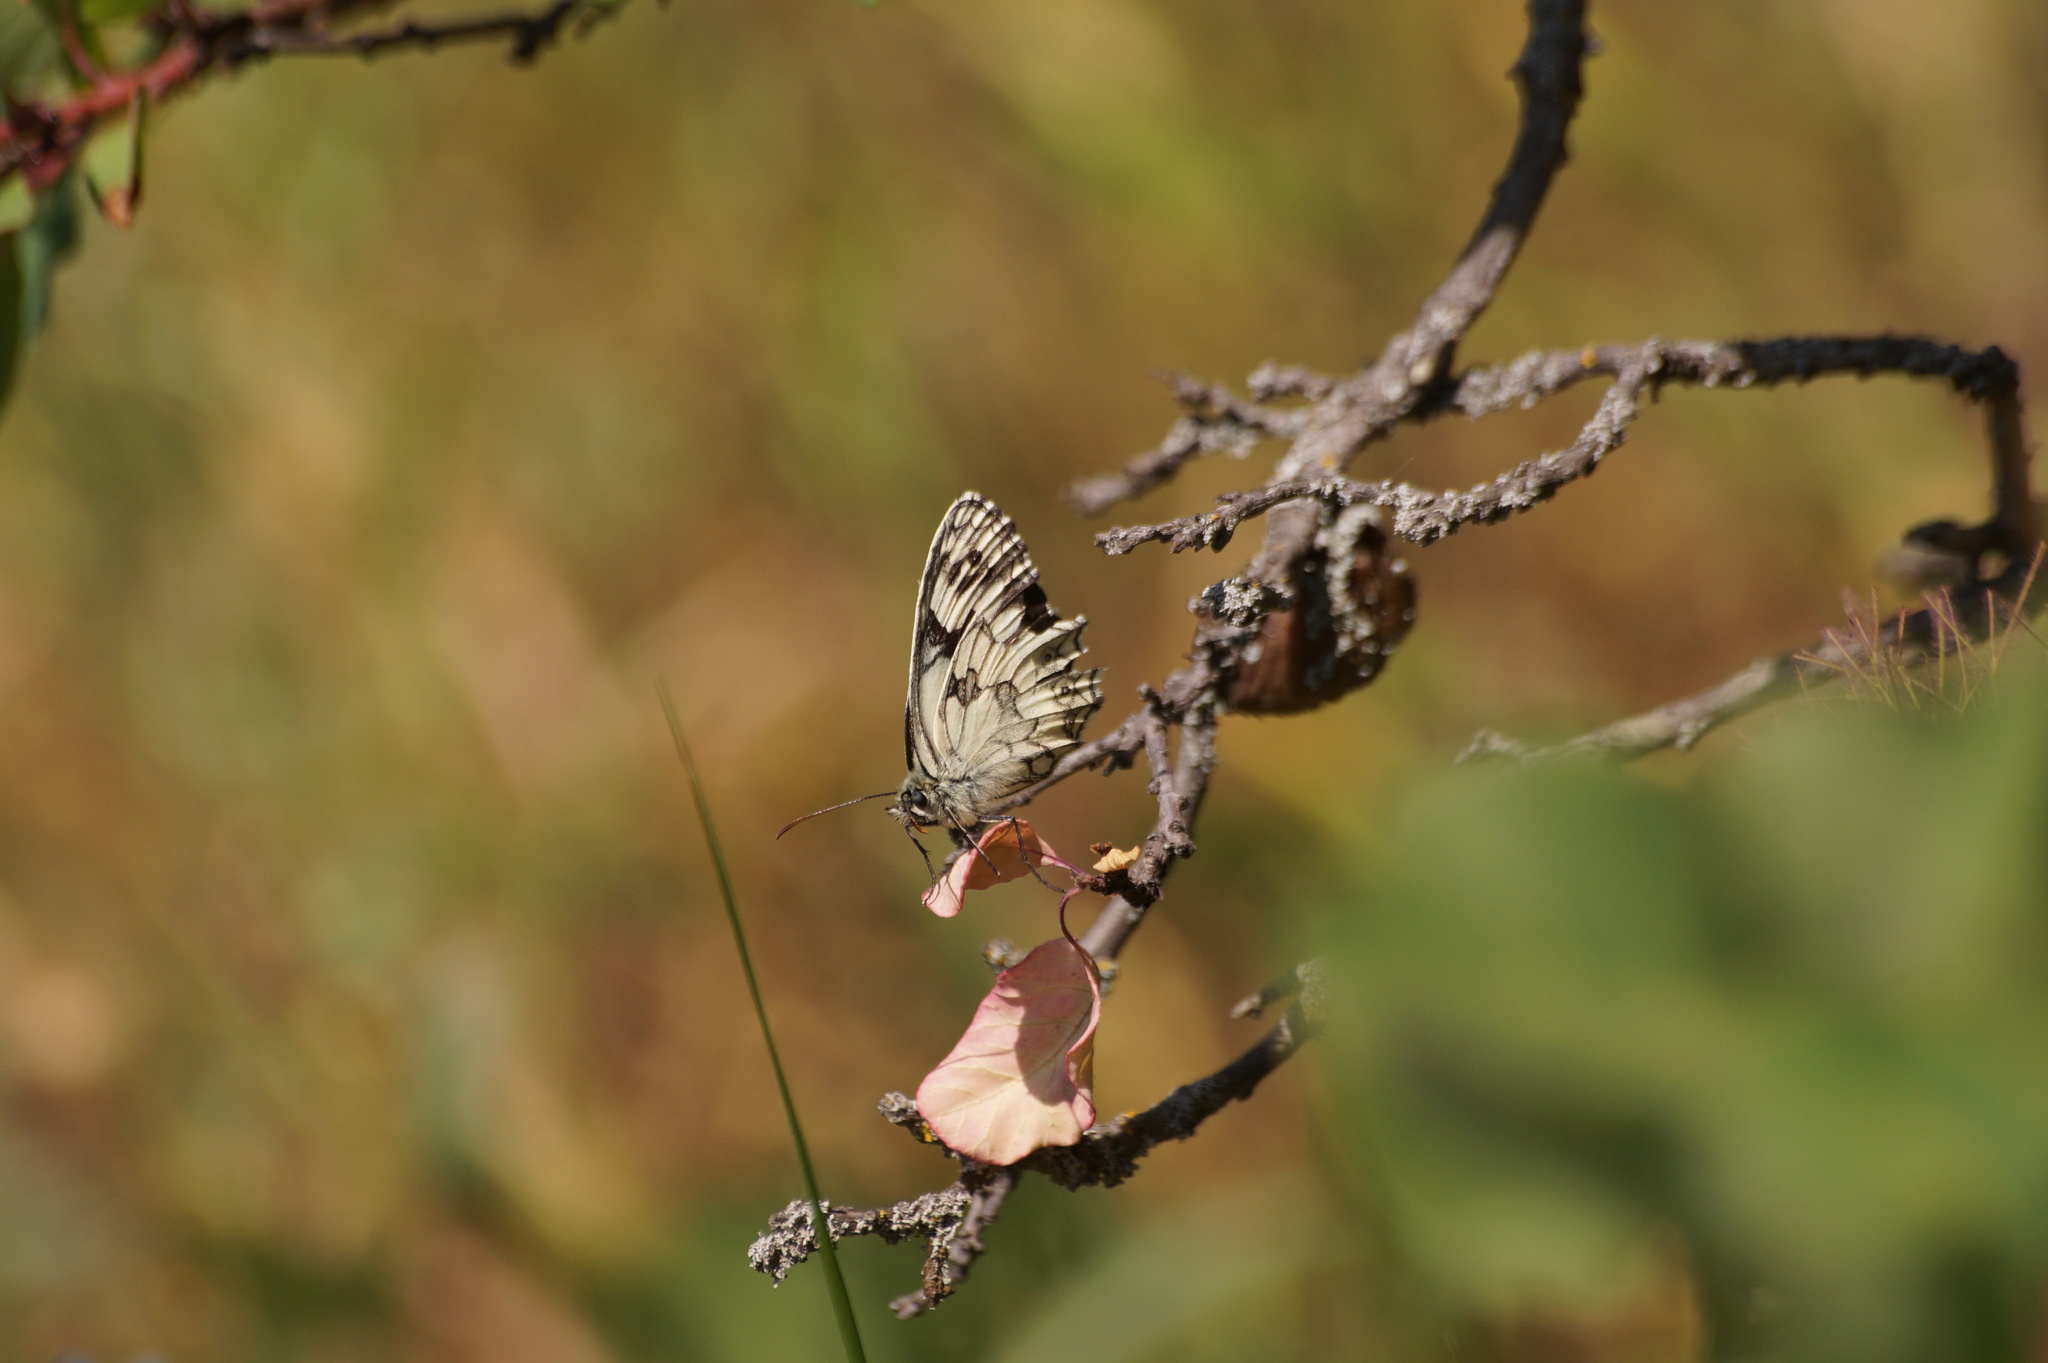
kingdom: Animalia
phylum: Arthropoda
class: Insecta
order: Lepidoptera
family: Nymphalidae
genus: Melanargia
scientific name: Melanargia galathea
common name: Marbled white
